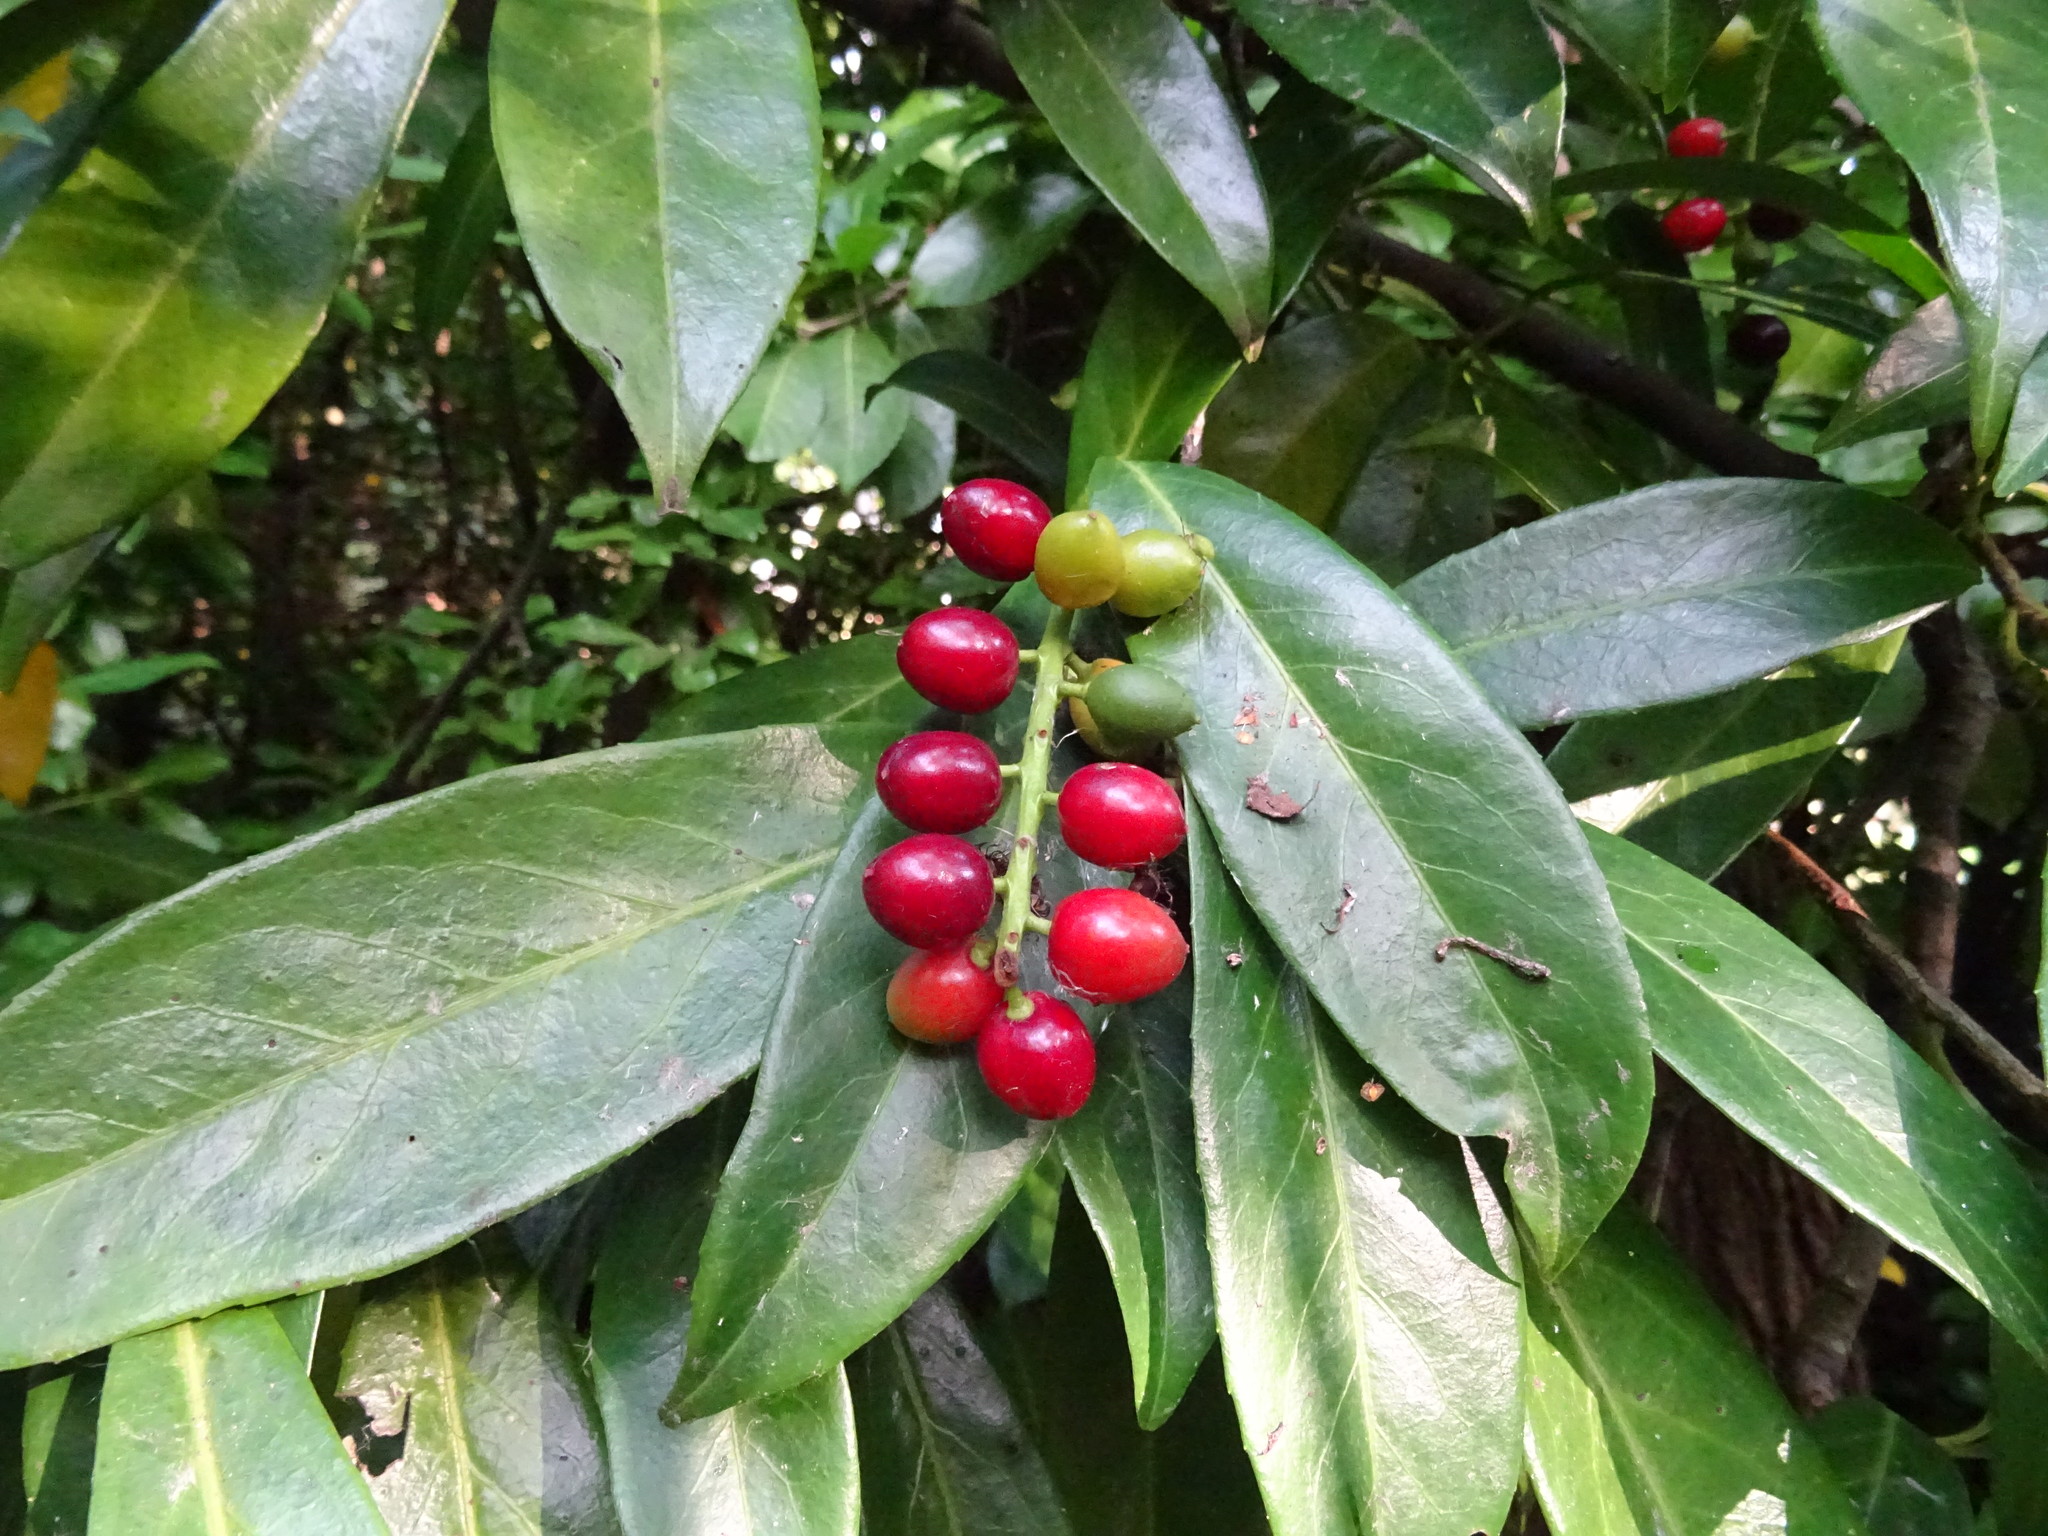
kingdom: Plantae
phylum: Tracheophyta
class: Magnoliopsida
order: Rosales
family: Rosaceae
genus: Prunus
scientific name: Prunus laurocerasus
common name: Cherry laurel
